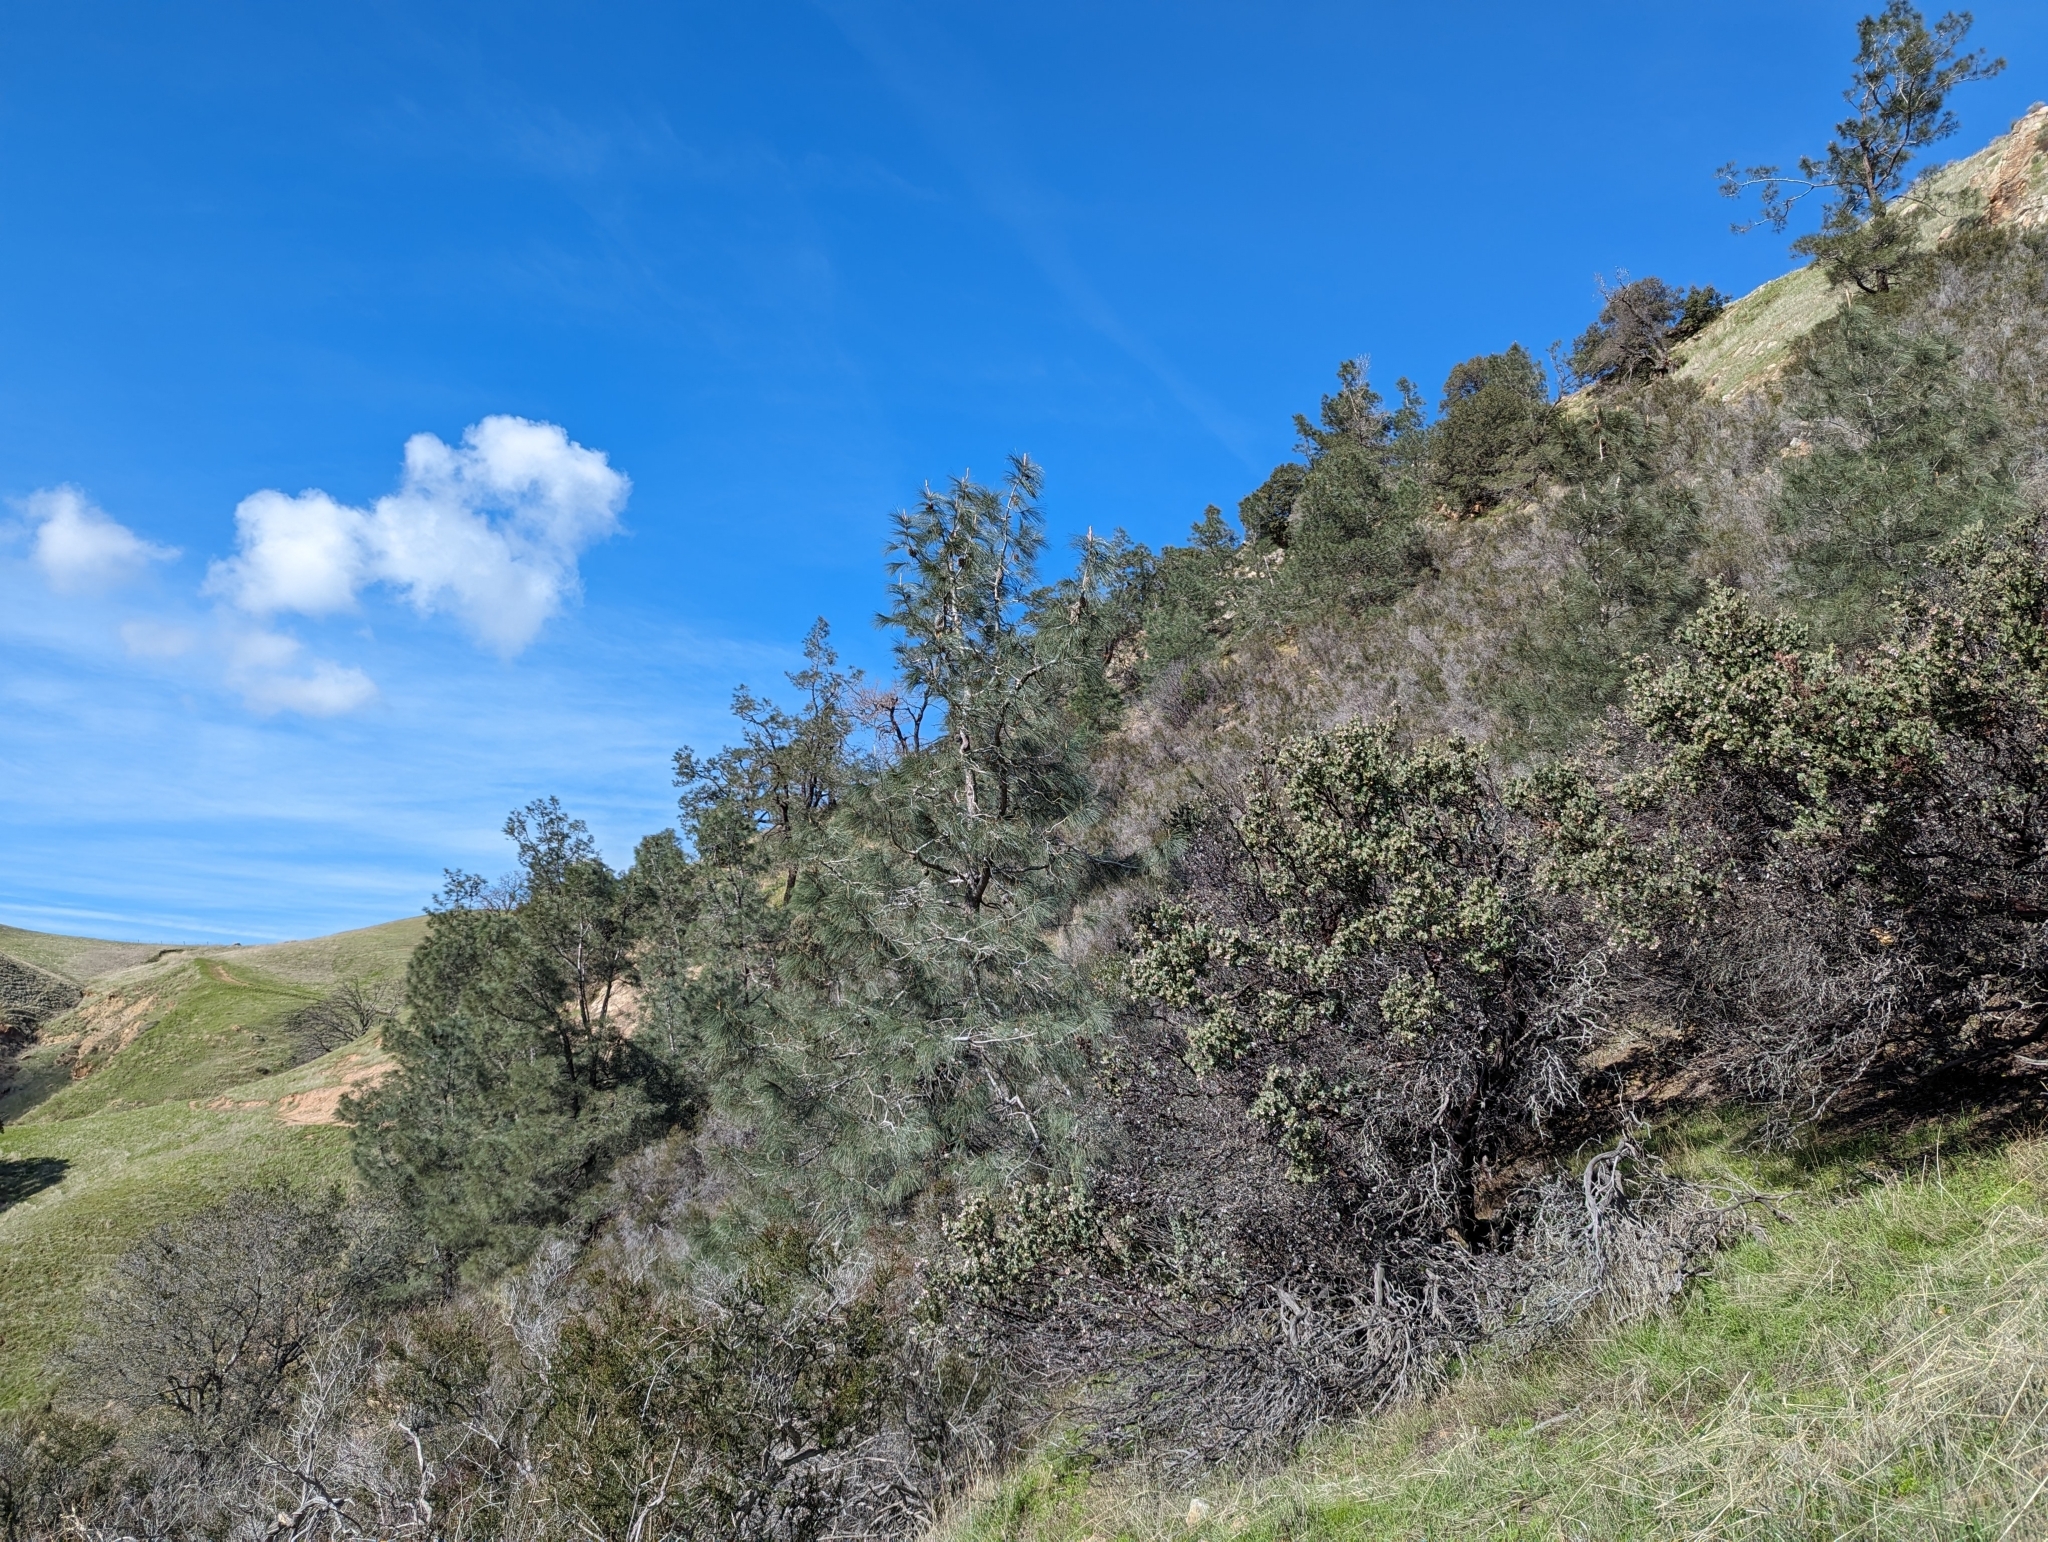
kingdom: Plantae
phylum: Tracheophyta
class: Magnoliopsida
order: Ericales
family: Ericaceae
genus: Arctostaphylos
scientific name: Arctostaphylos auriculata
